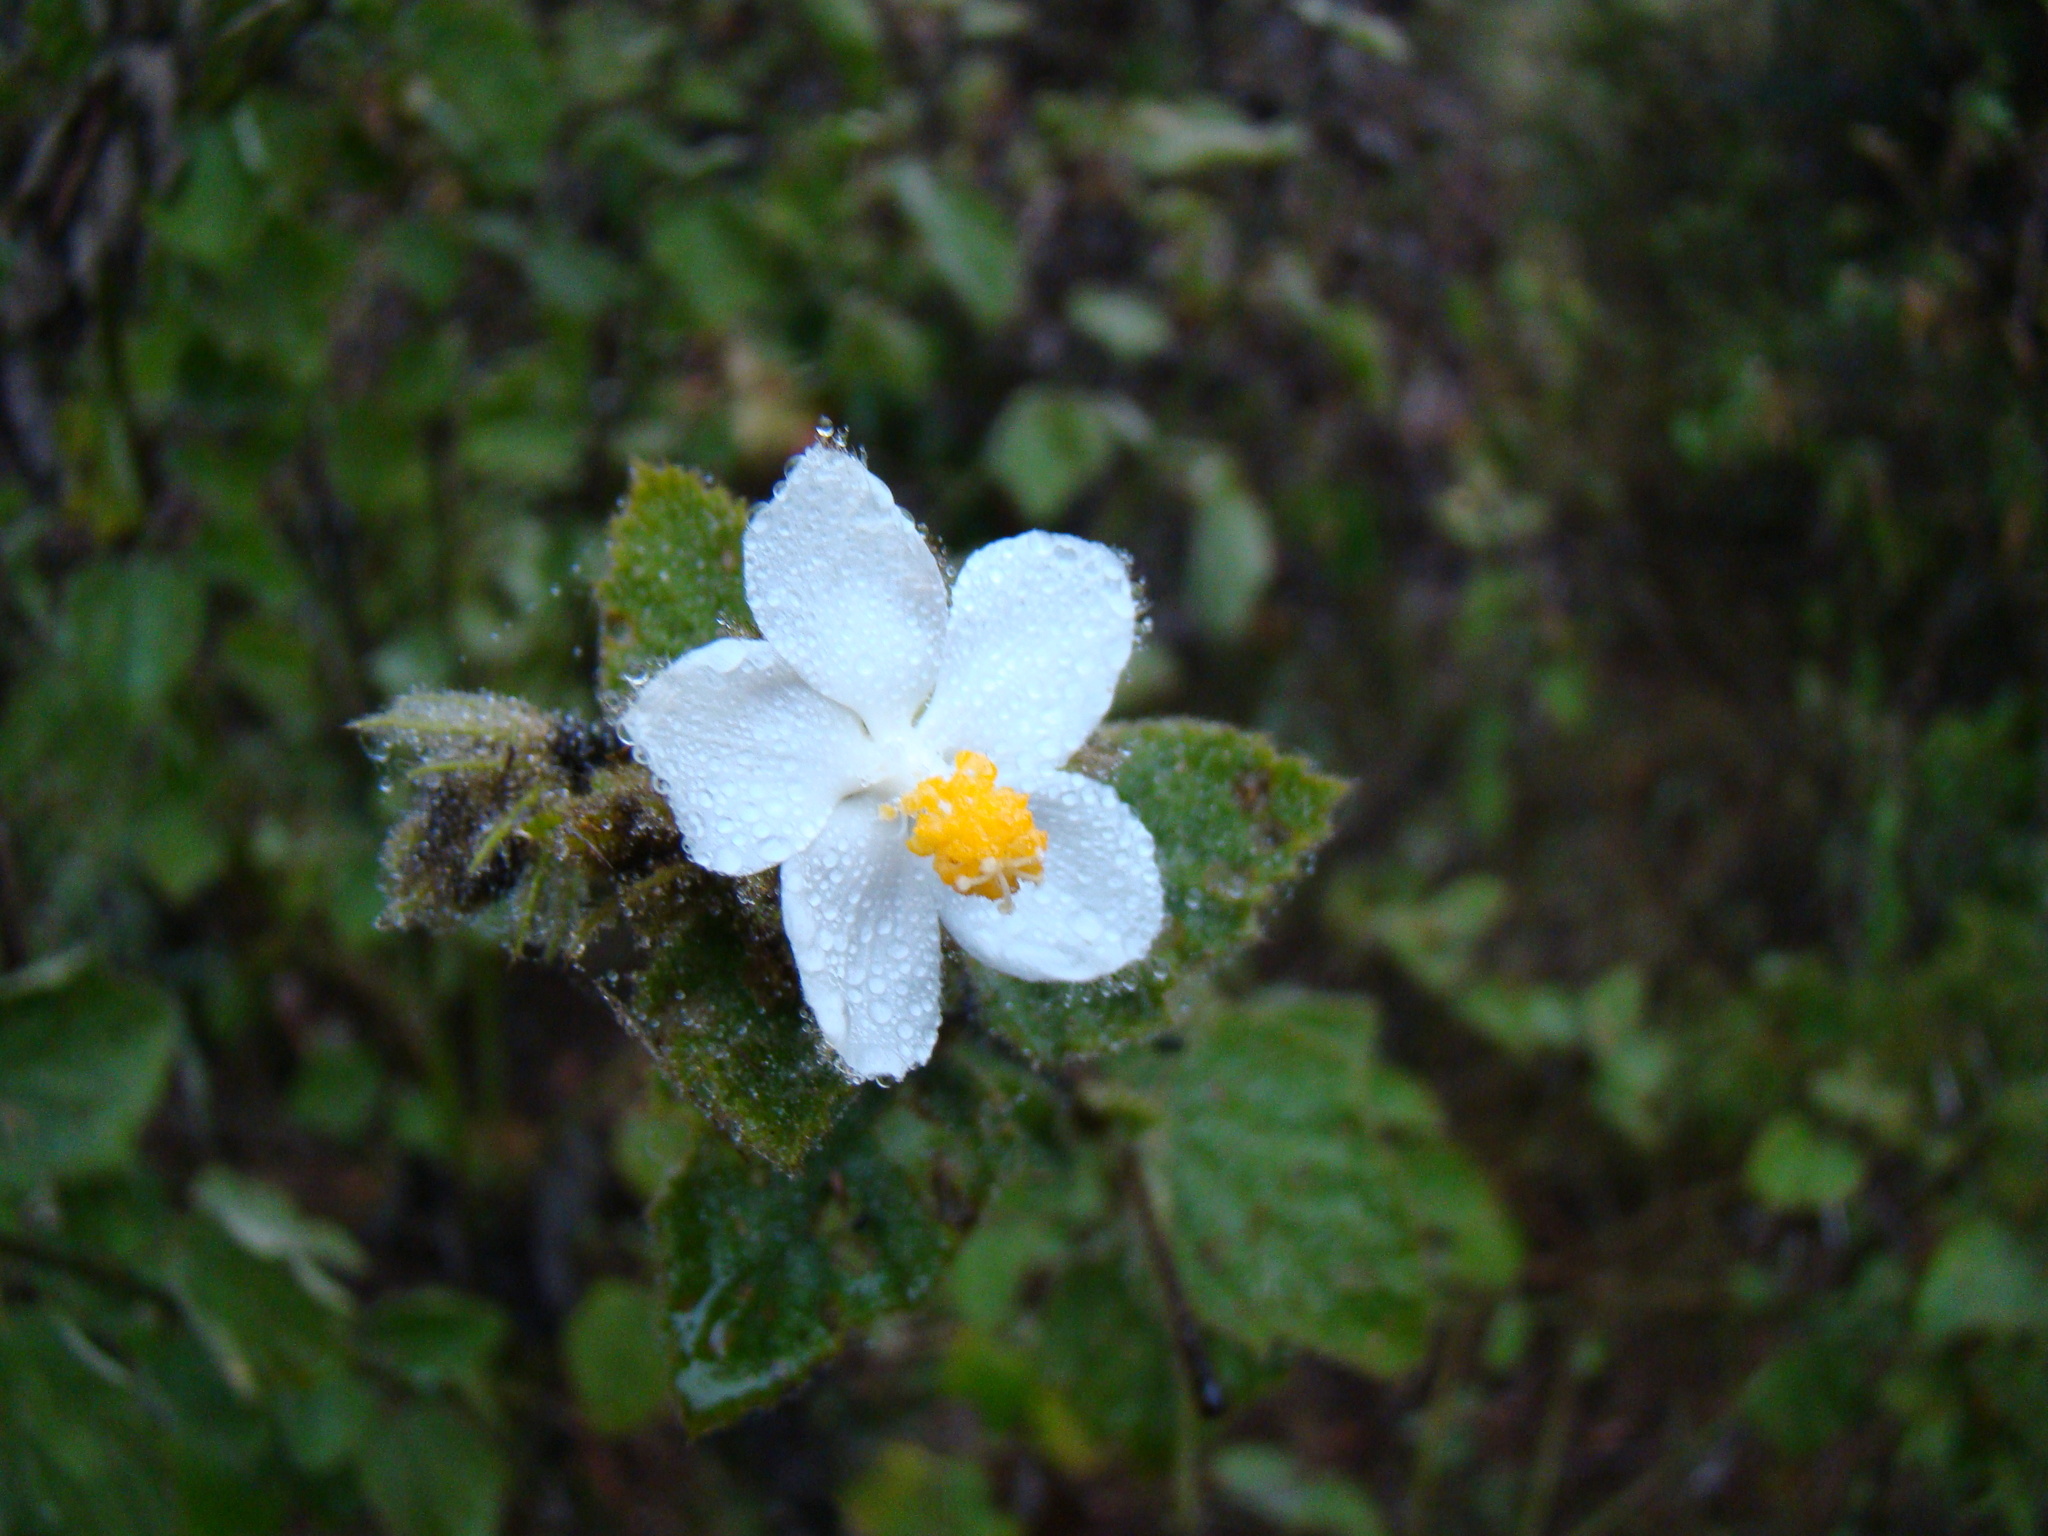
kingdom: Plantae
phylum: Tracheophyta
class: Magnoliopsida
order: Malvales
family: Malvaceae
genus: Hibiscus
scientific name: Hibiscus fuscus
